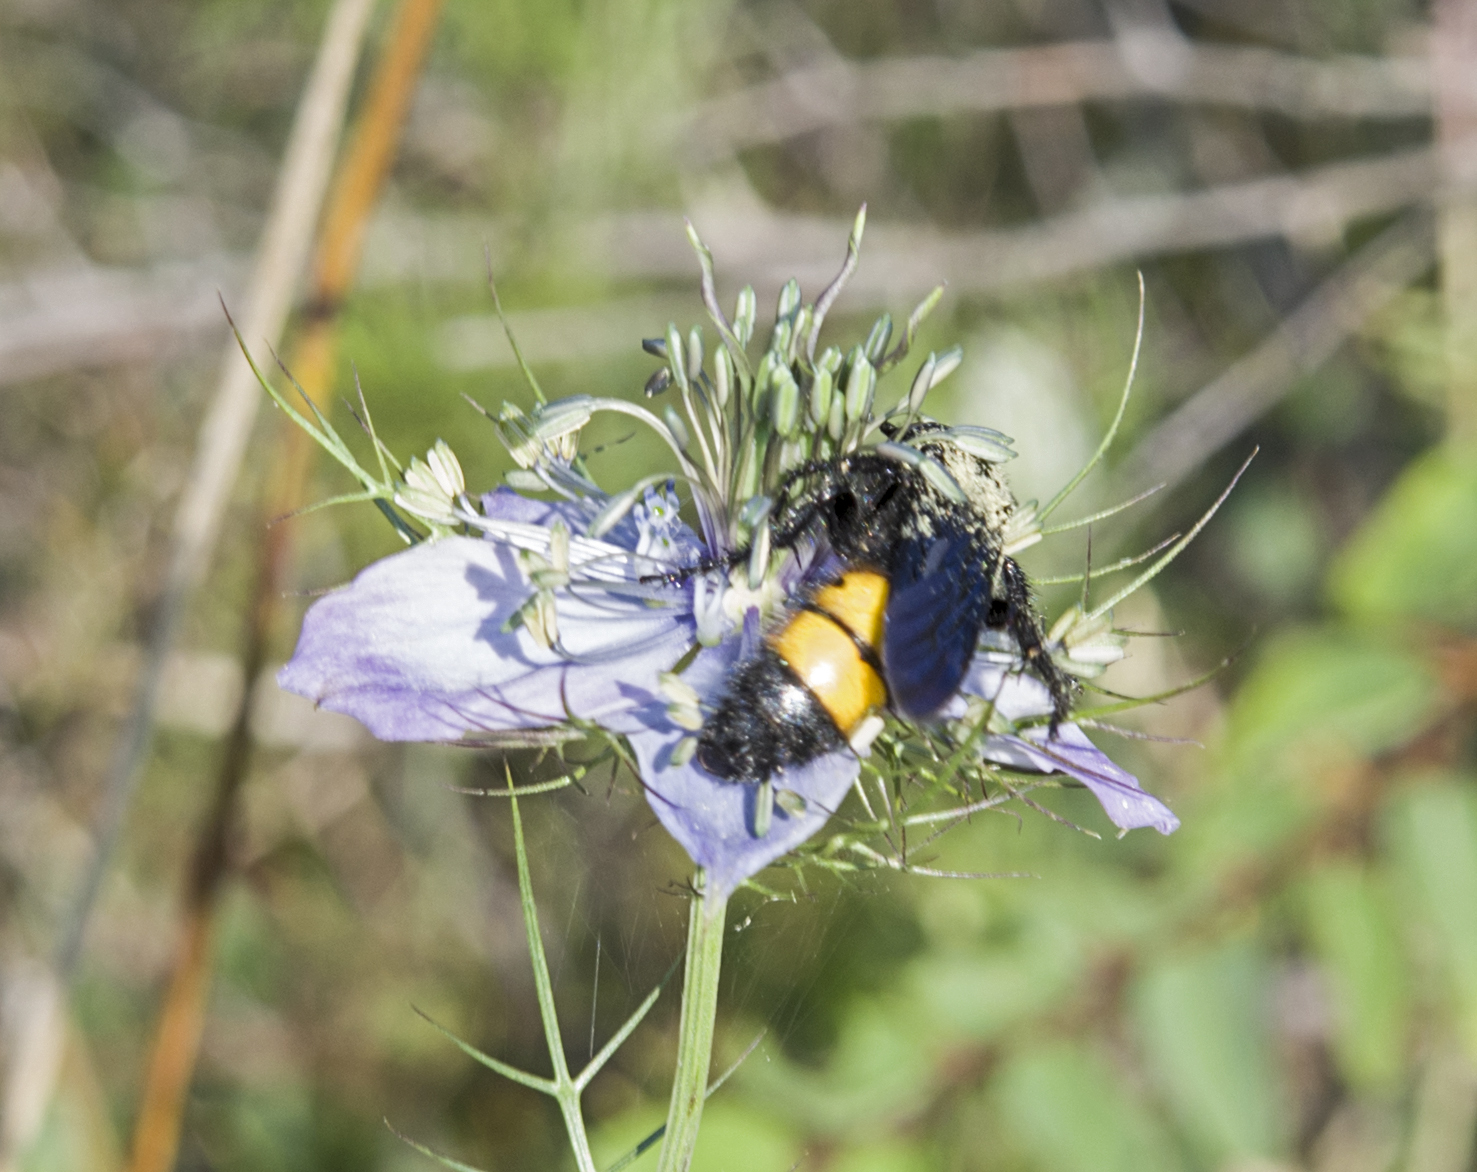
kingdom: Animalia
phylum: Arthropoda
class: Insecta
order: Hymenoptera
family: Scoliidae
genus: Scolia
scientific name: Scolia hirta
